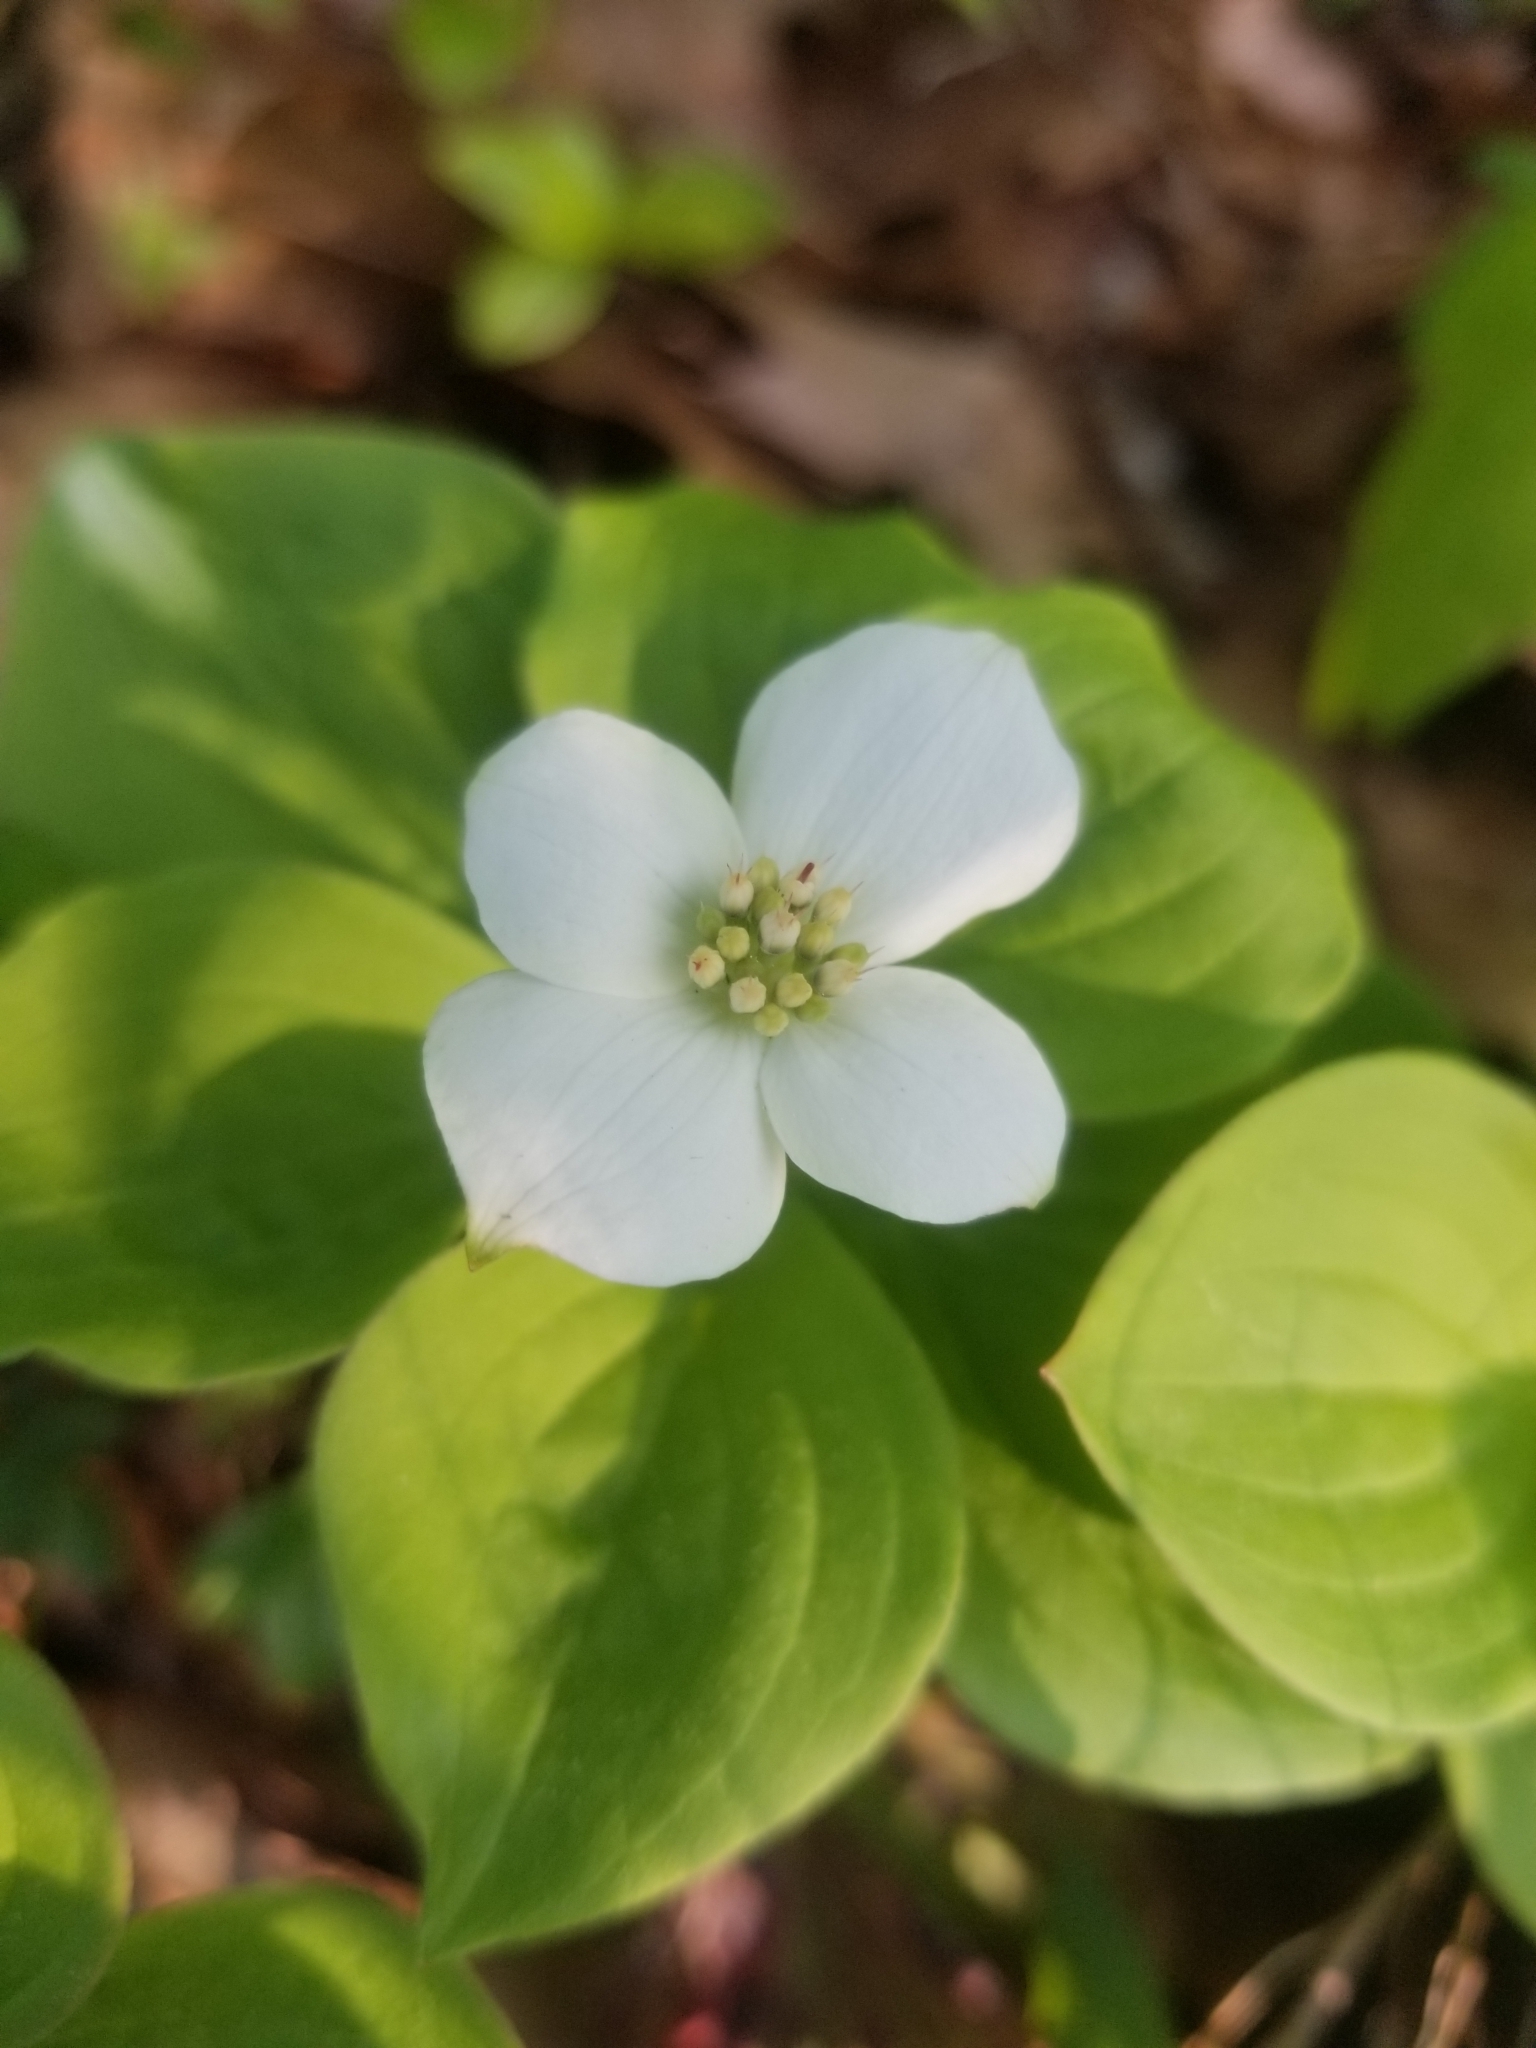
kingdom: Plantae
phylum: Tracheophyta
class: Magnoliopsida
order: Cornales
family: Cornaceae
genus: Cornus
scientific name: Cornus canadensis
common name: Creeping dogwood
